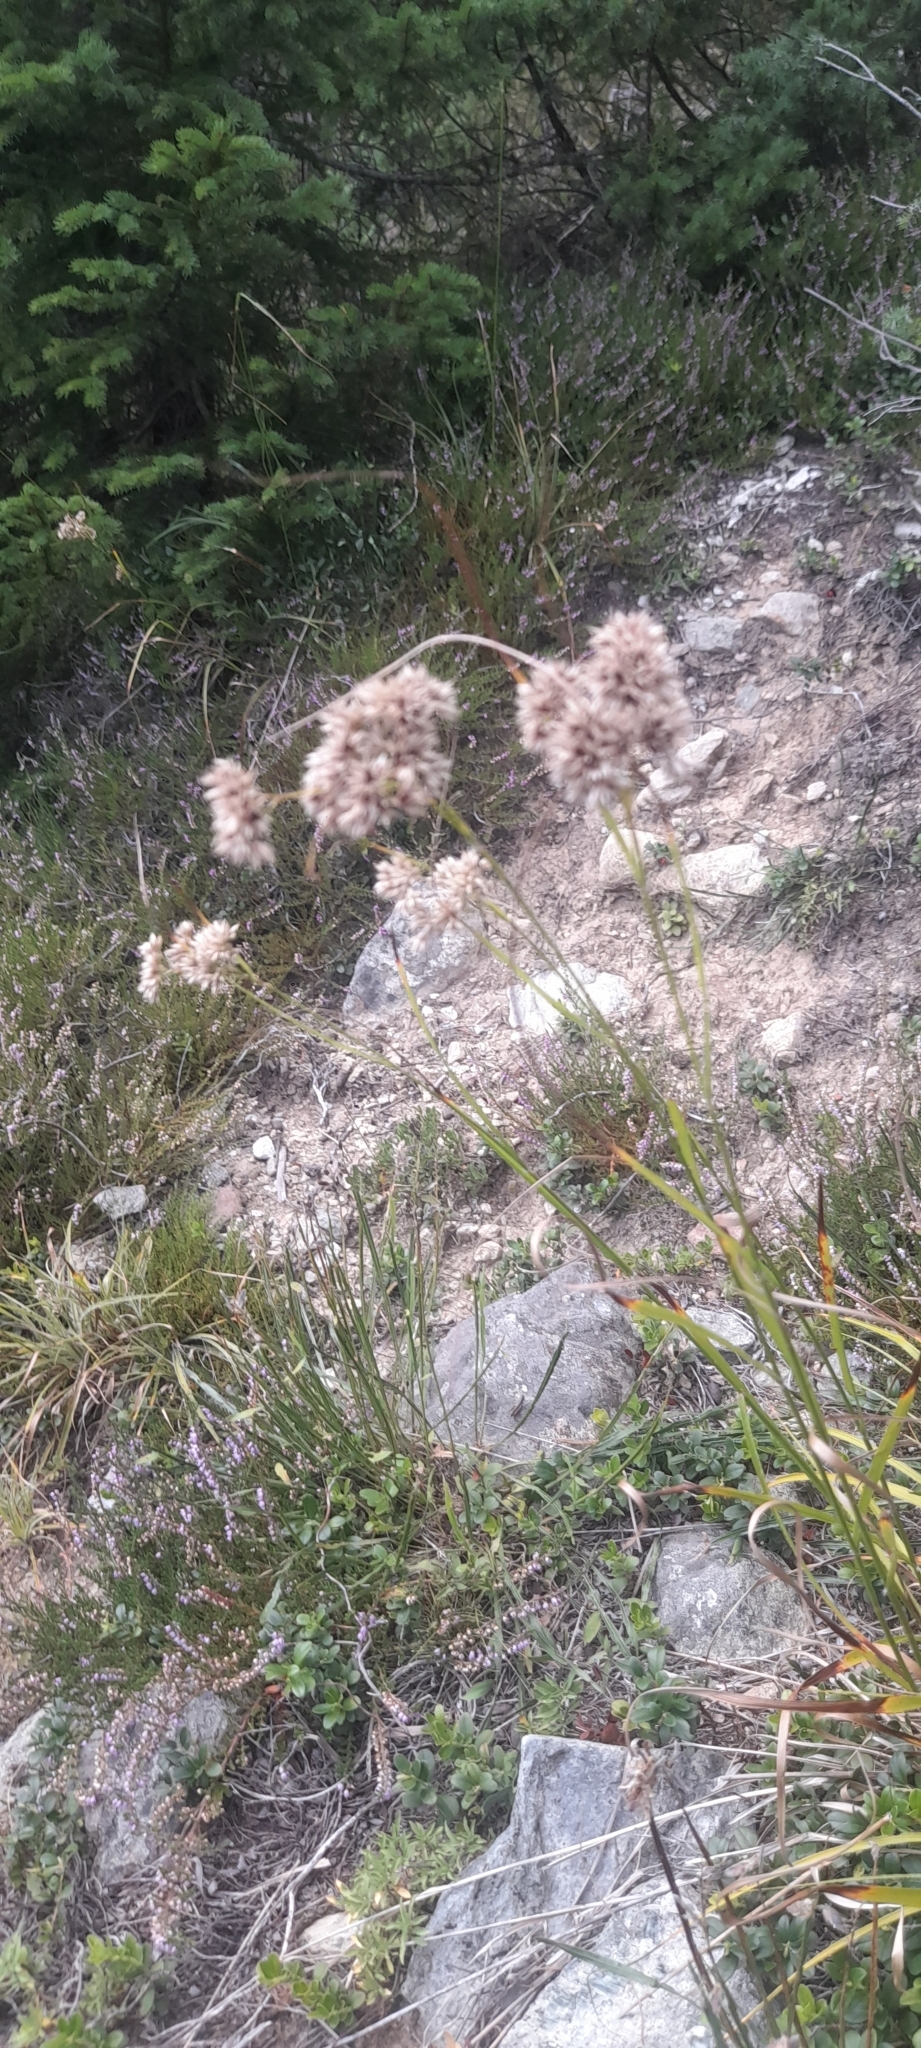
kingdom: Plantae
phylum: Tracheophyta
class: Liliopsida
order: Poales
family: Juncaceae
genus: Luzula
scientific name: Luzula nivea
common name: Snow-white wood-rush
